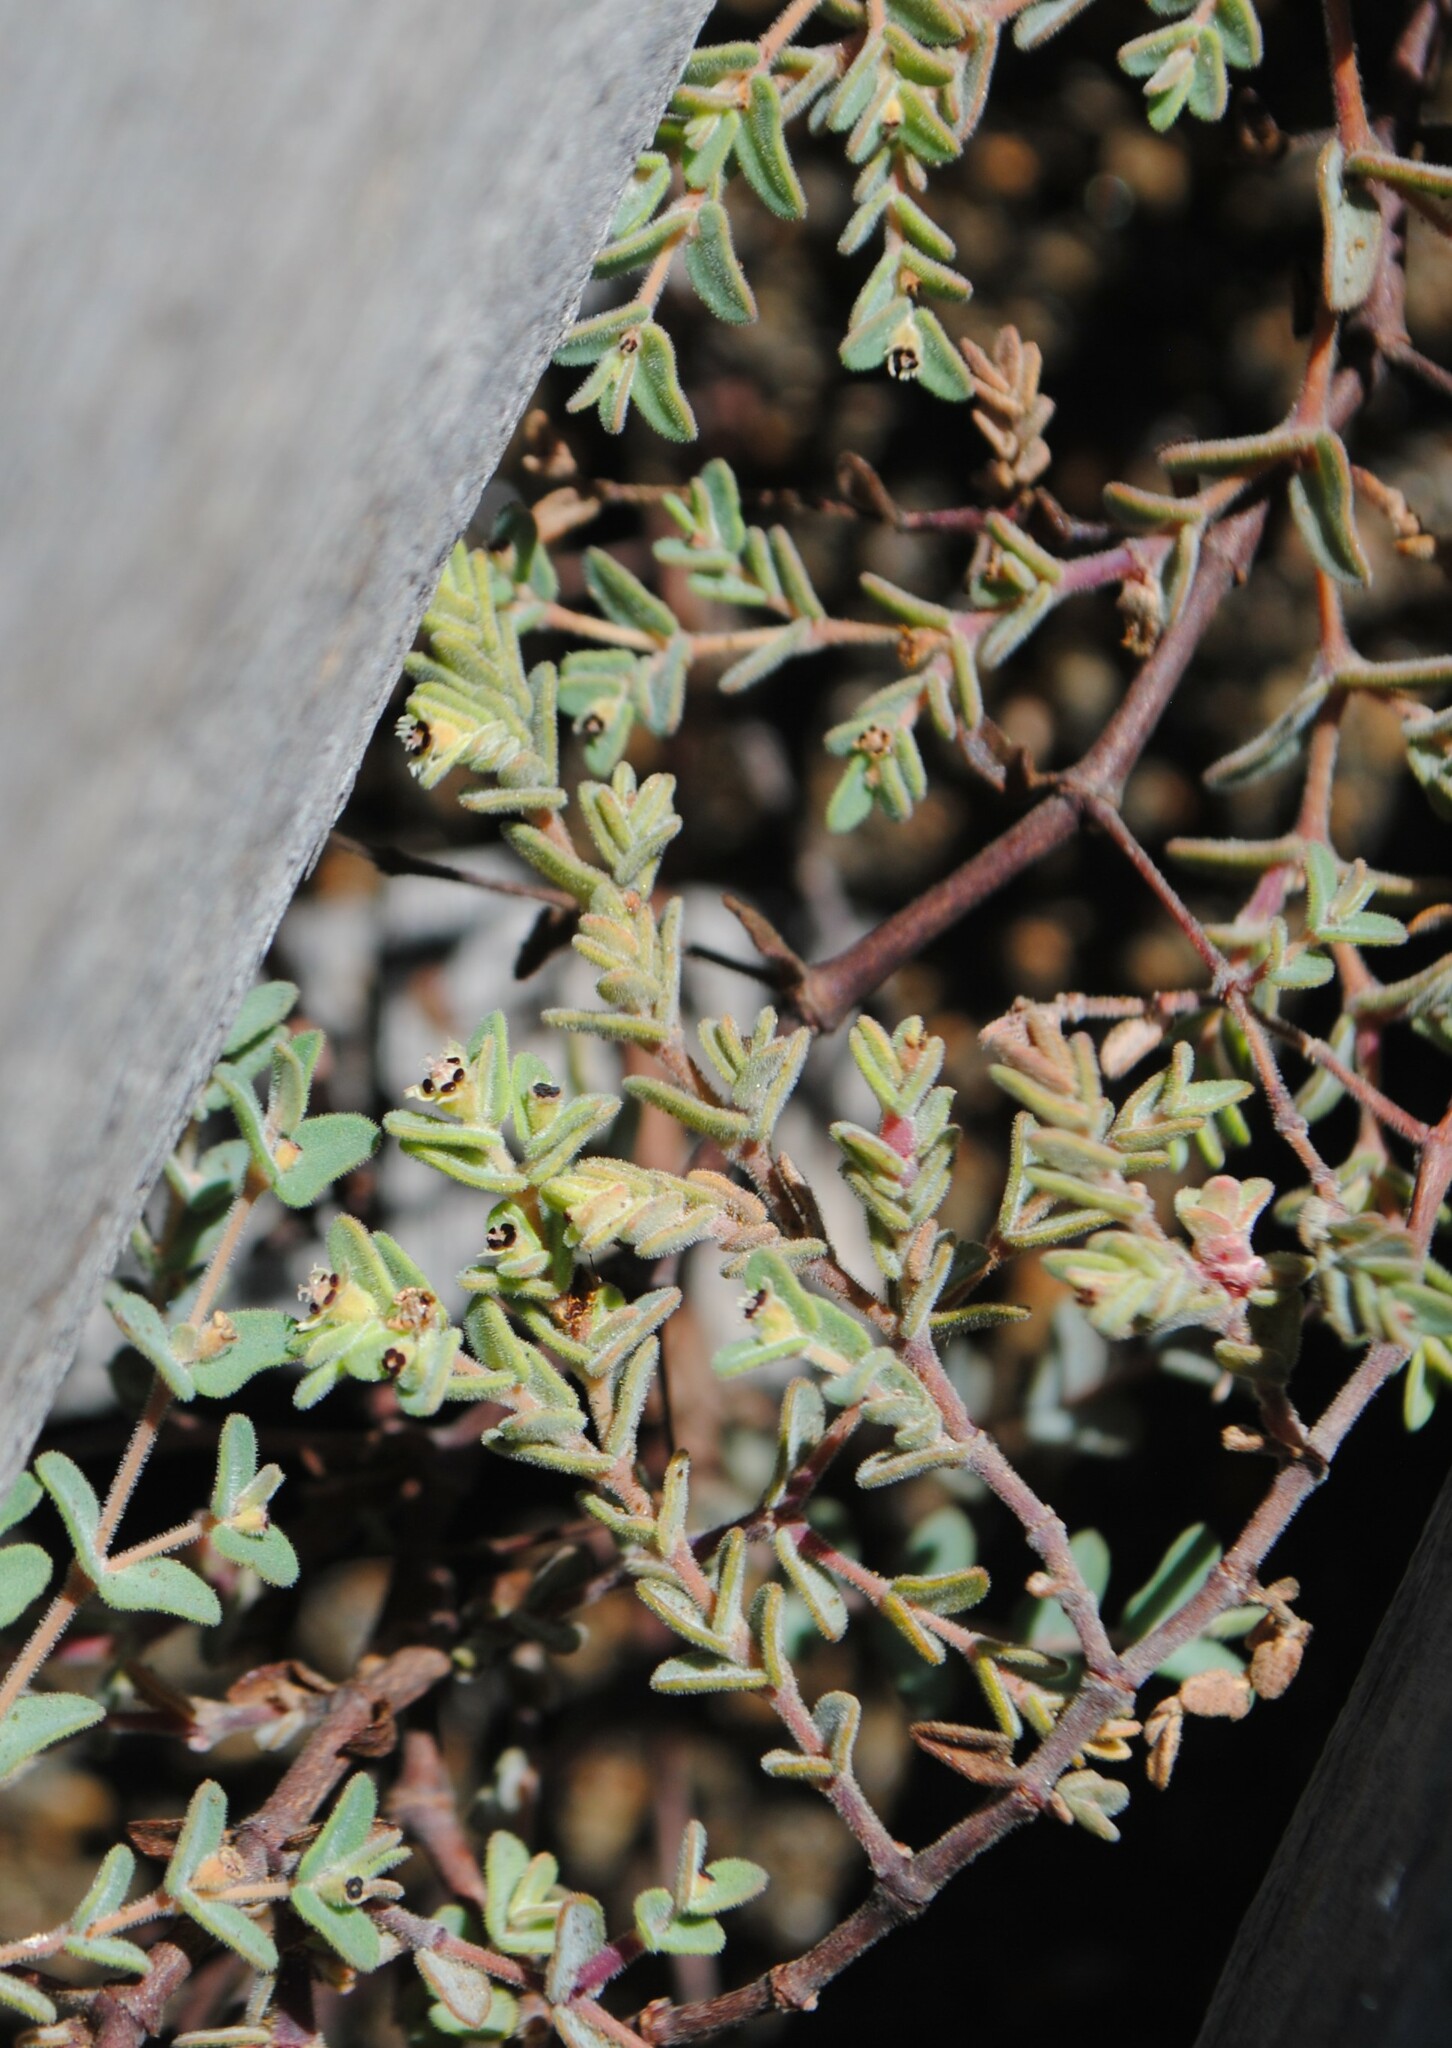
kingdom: Plantae
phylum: Tracheophyta
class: Magnoliopsida
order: Malpighiales
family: Euphorbiaceae
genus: Euphorbia
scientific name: Euphorbia abdita
